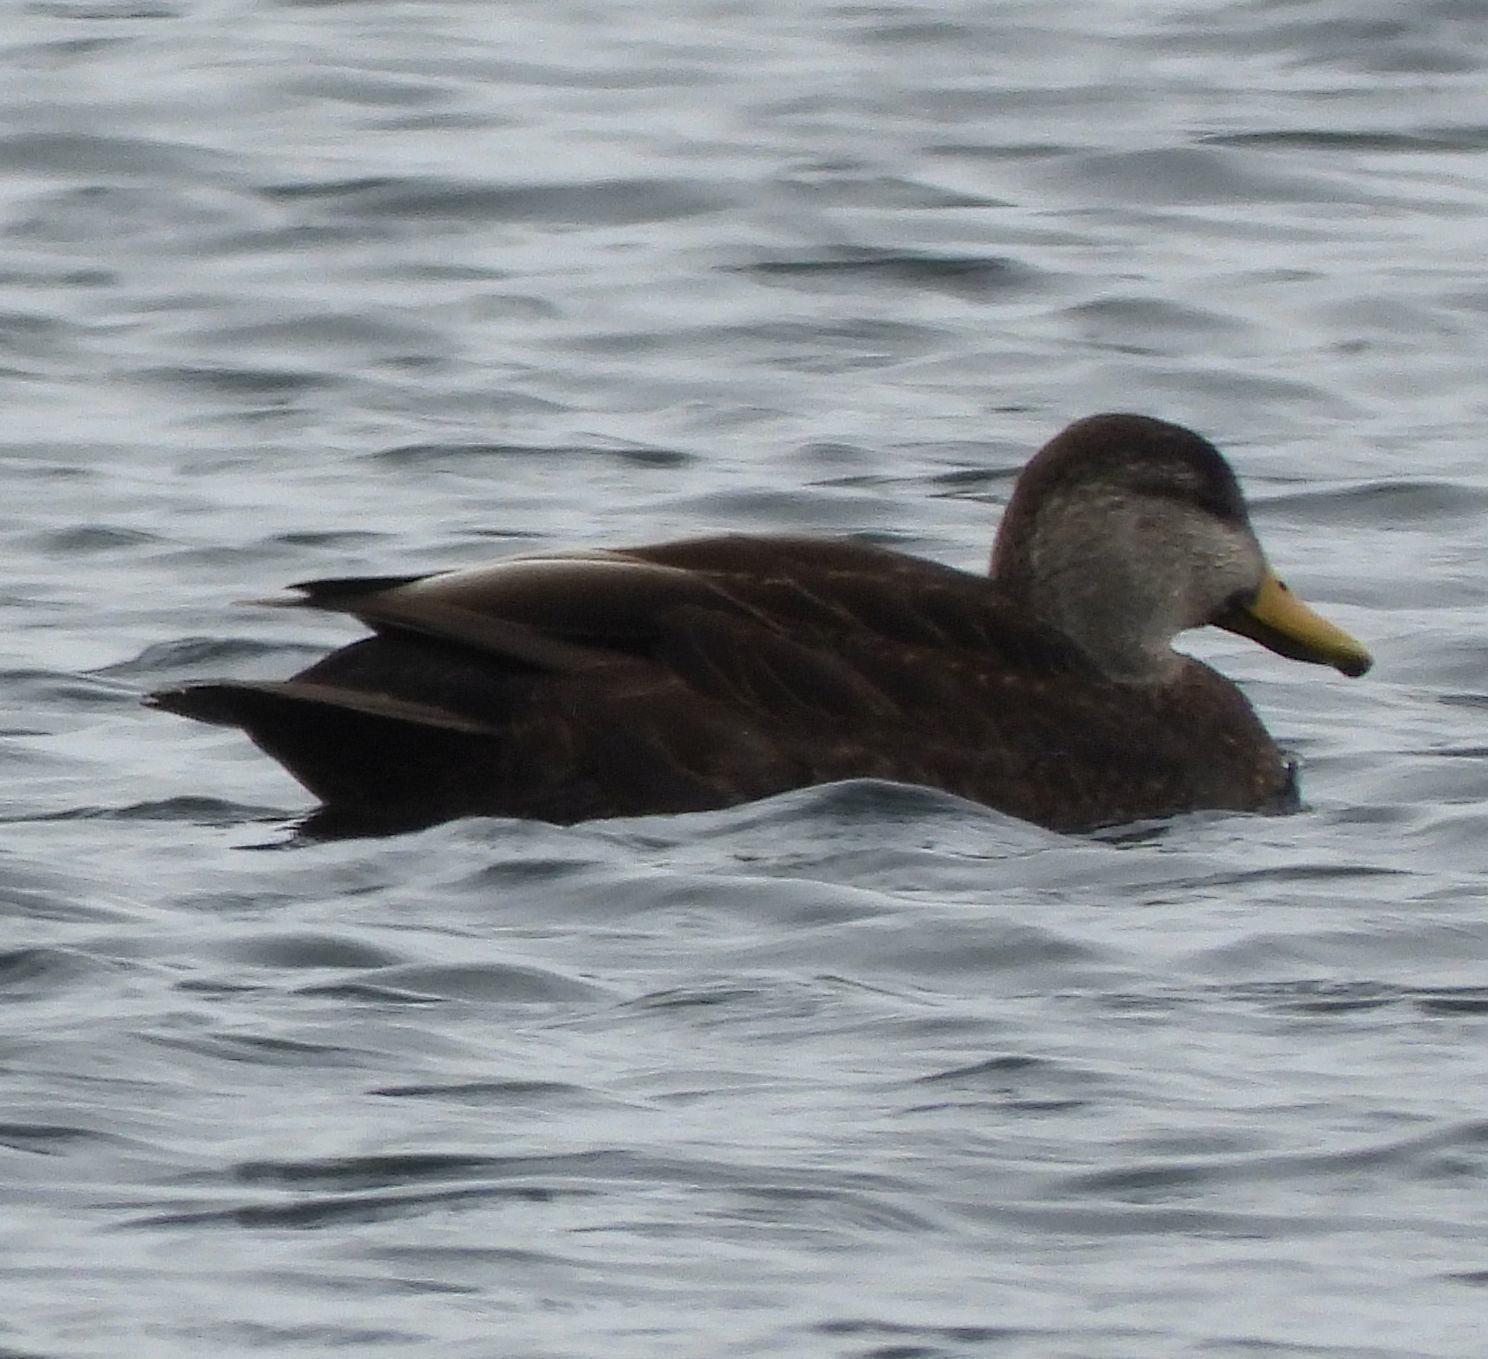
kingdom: Animalia
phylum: Chordata
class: Aves
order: Anseriformes
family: Anatidae
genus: Anas
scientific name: Anas rubripes
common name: American black duck
